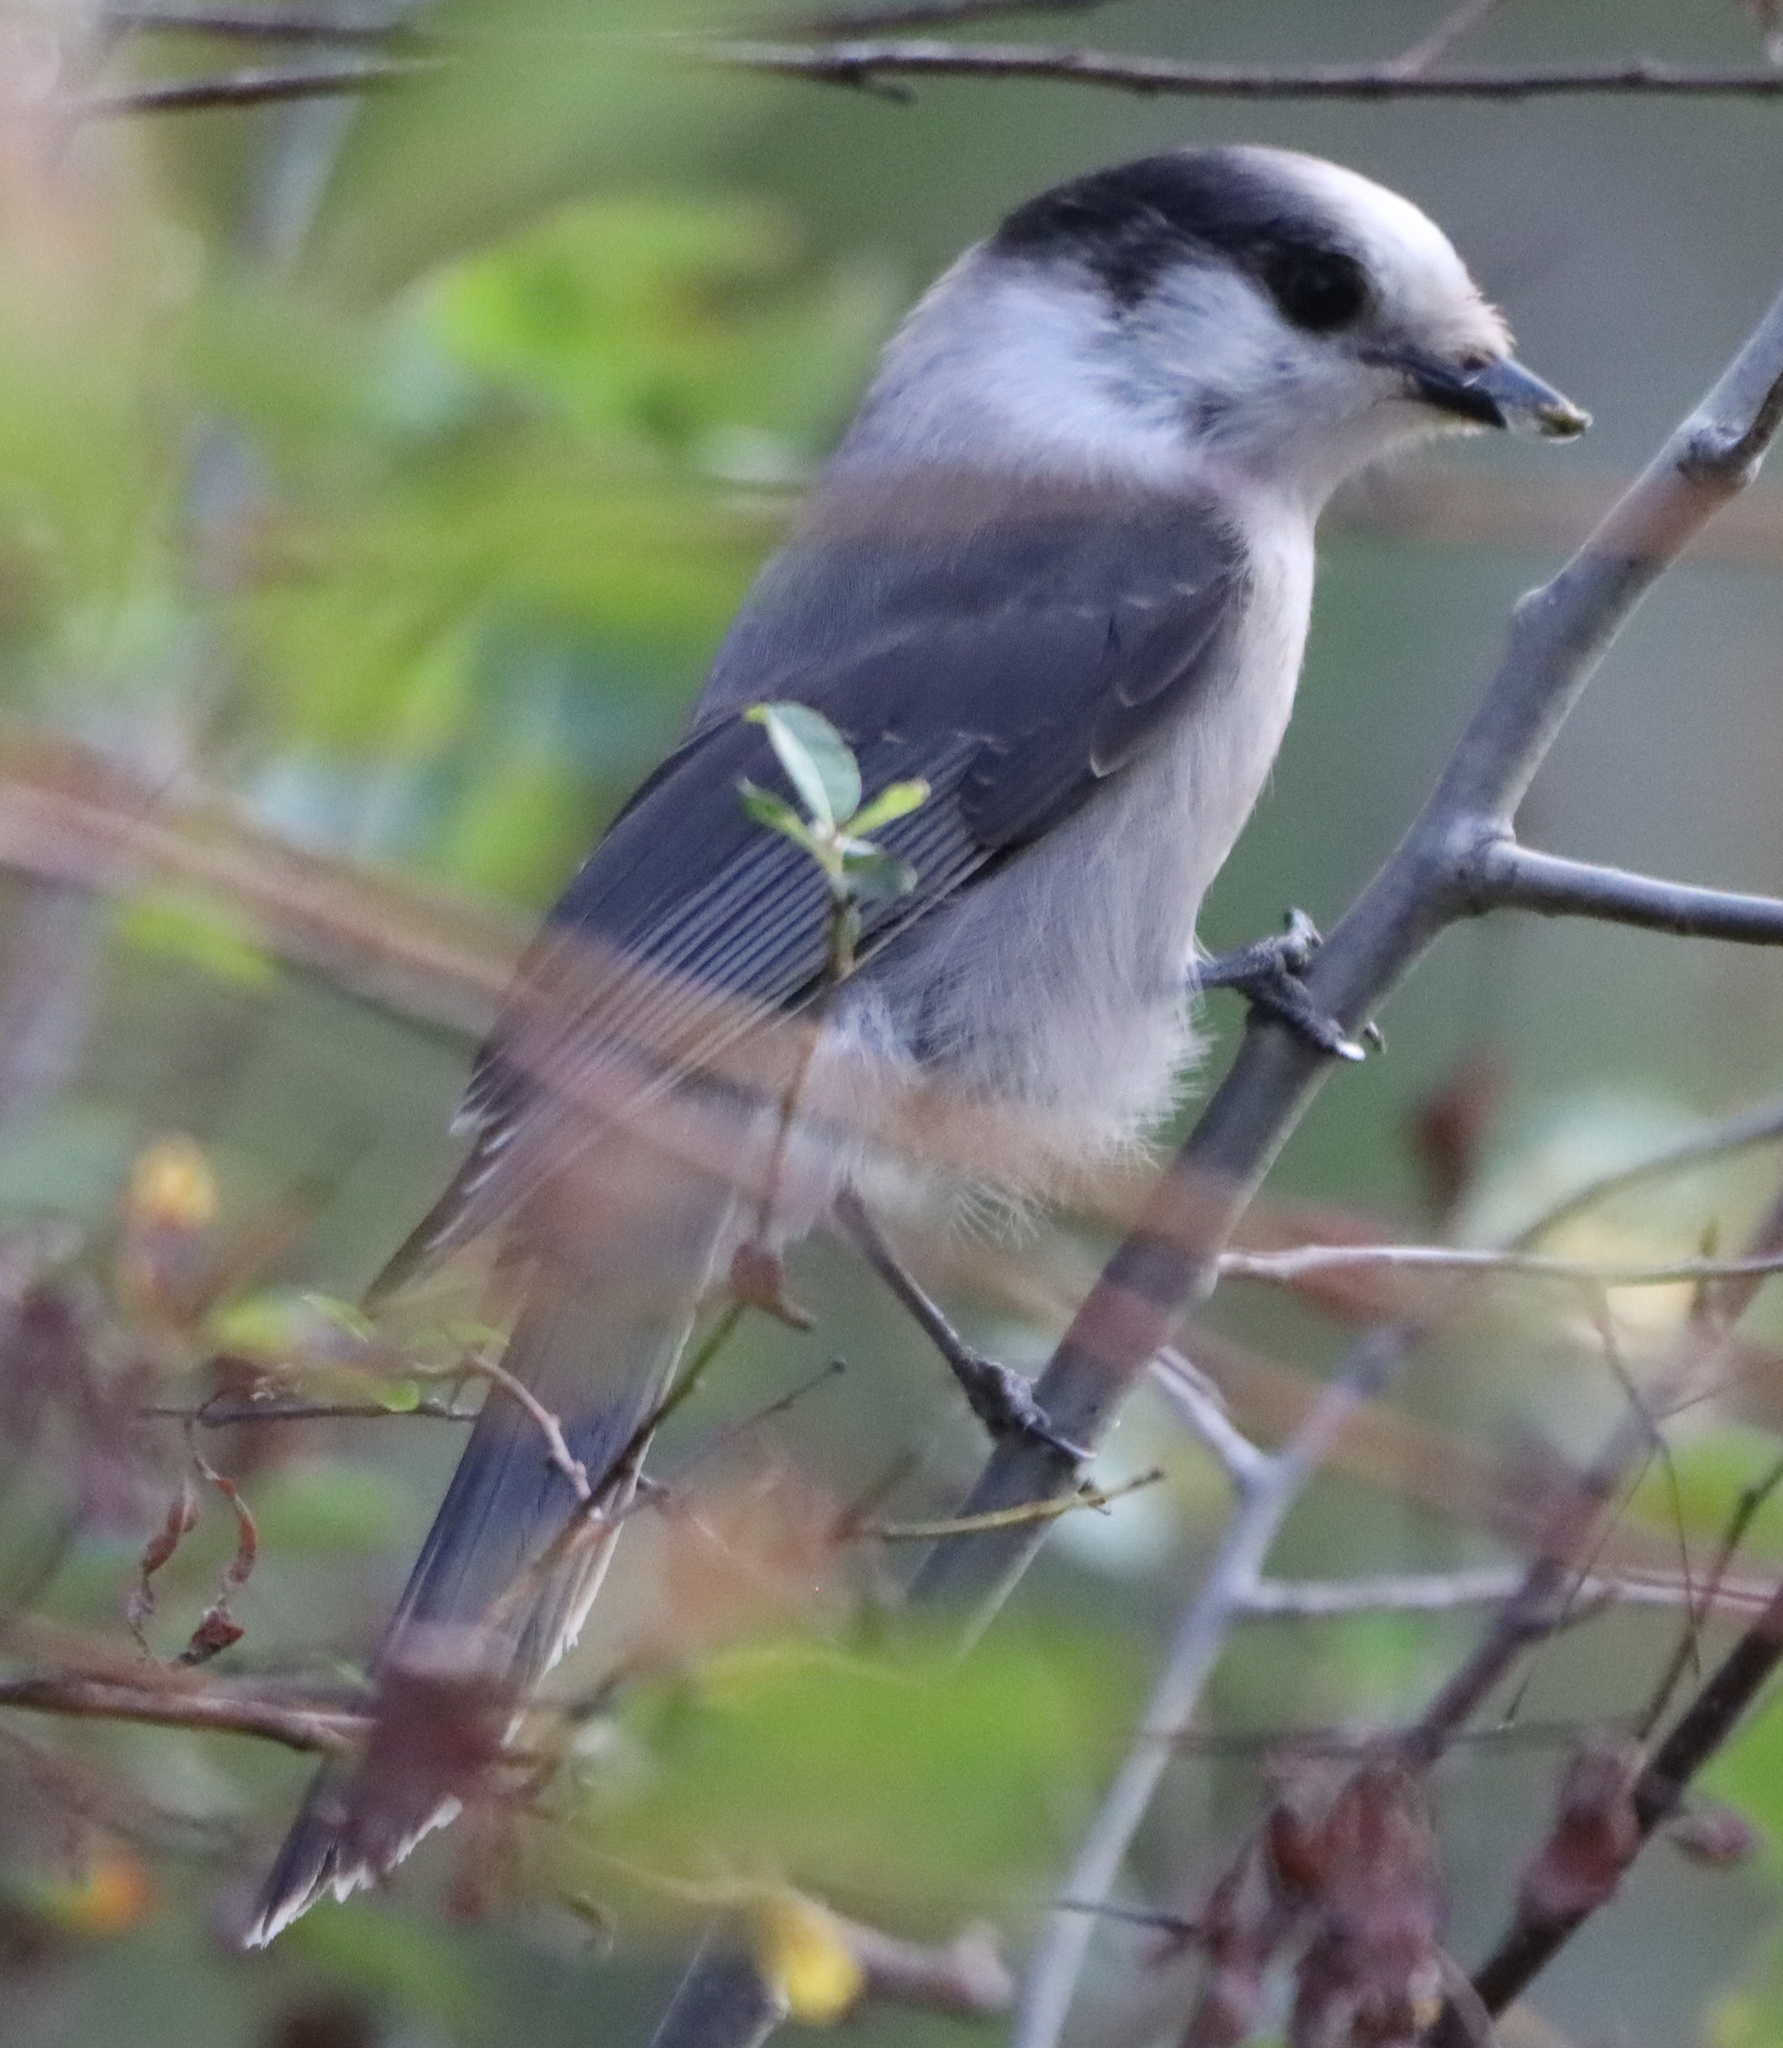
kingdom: Animalia
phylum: Chordata
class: Aves
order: Passeriformes
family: Corvidae
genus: Perisoreus
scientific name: Perisoreus canadensis
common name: Gray jay
